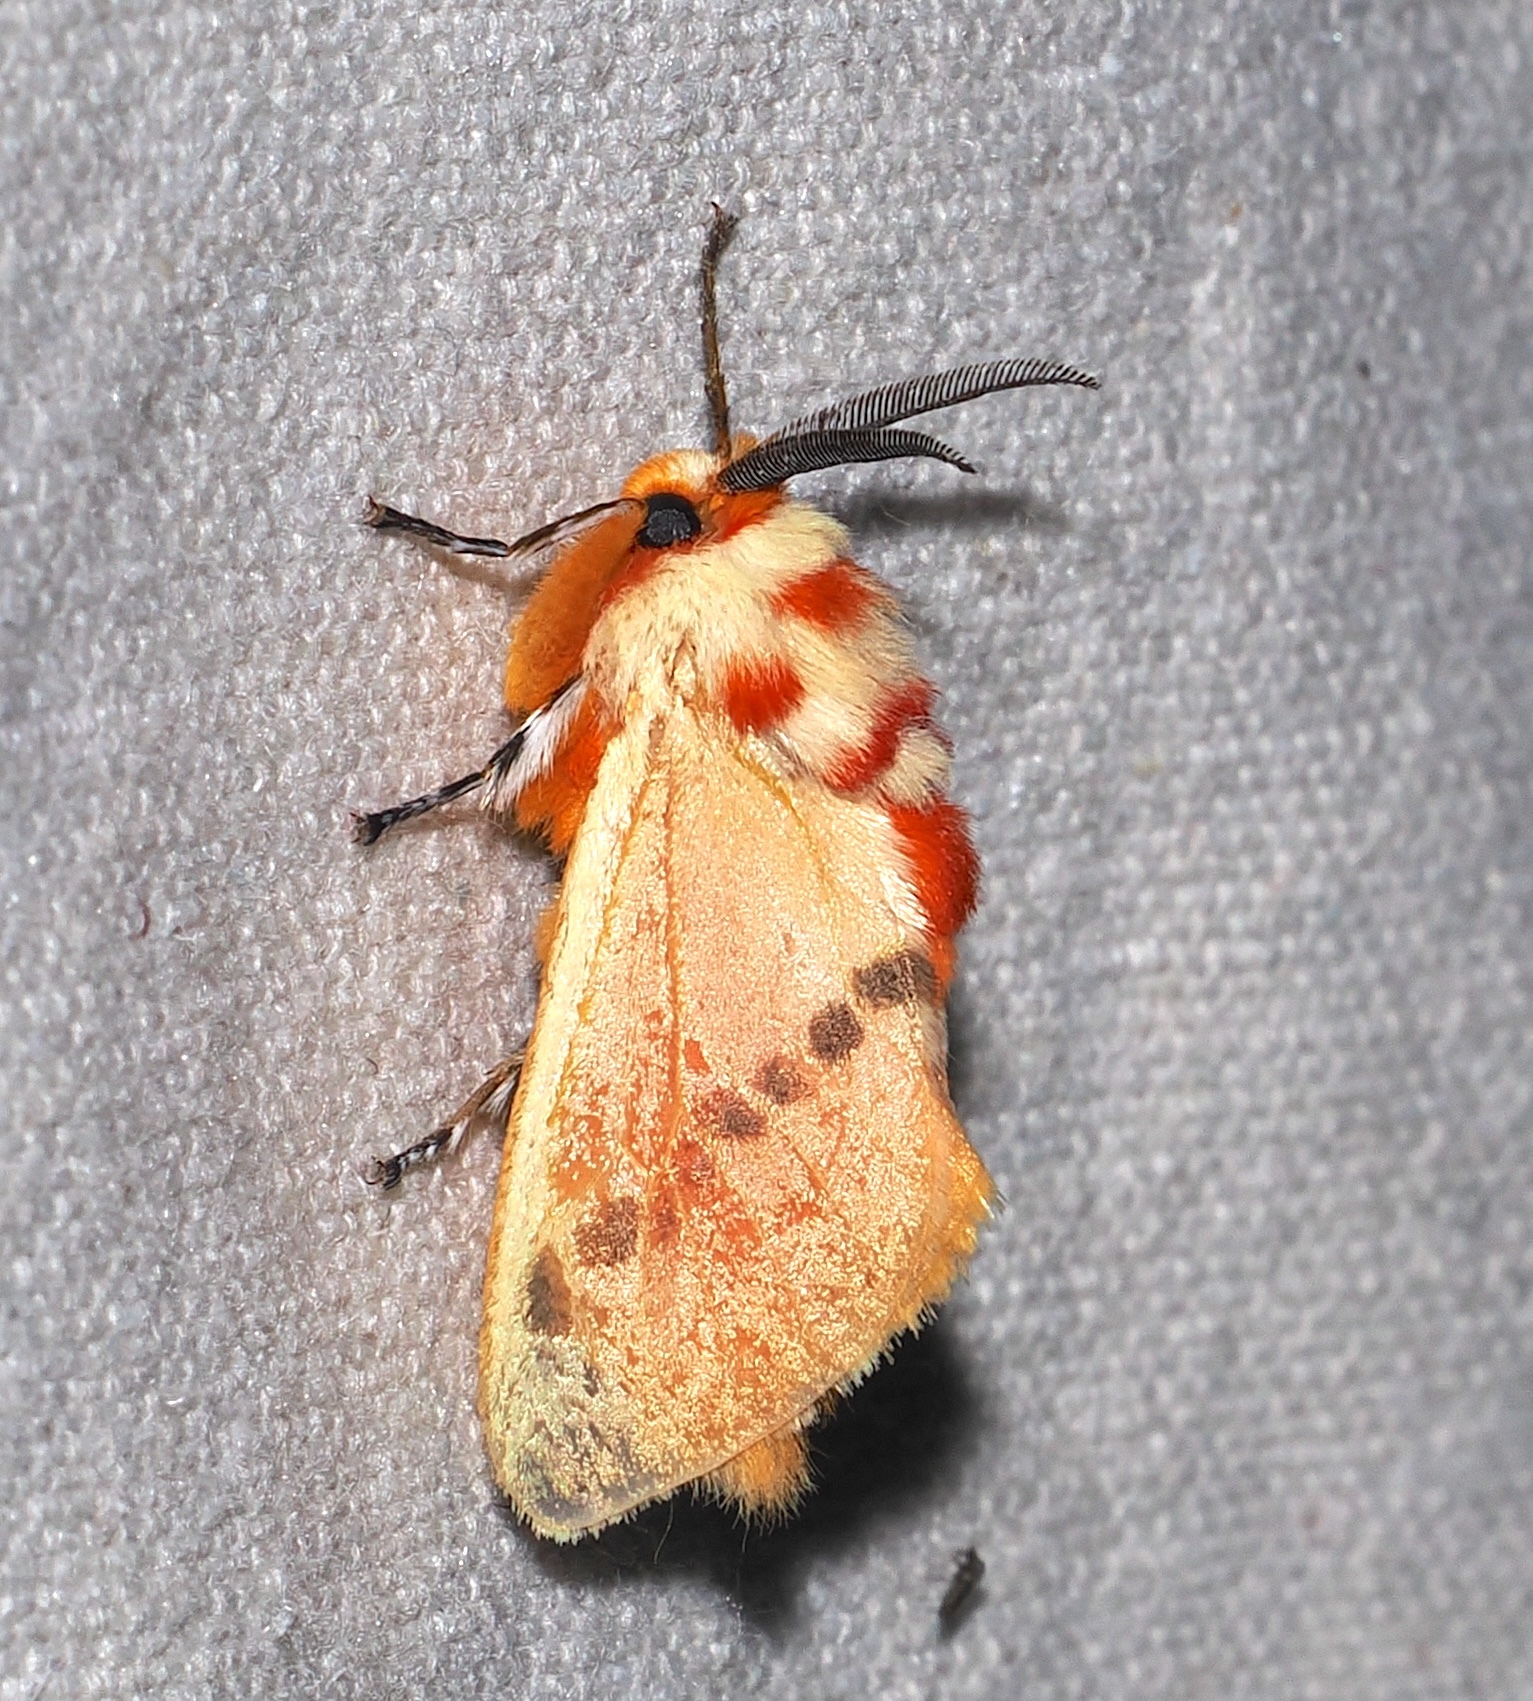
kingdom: Animalia
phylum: Arthropoda
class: Insecta
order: Lepidoptera
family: Megalopygidae
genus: Trosia
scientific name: Trosia tolimata
